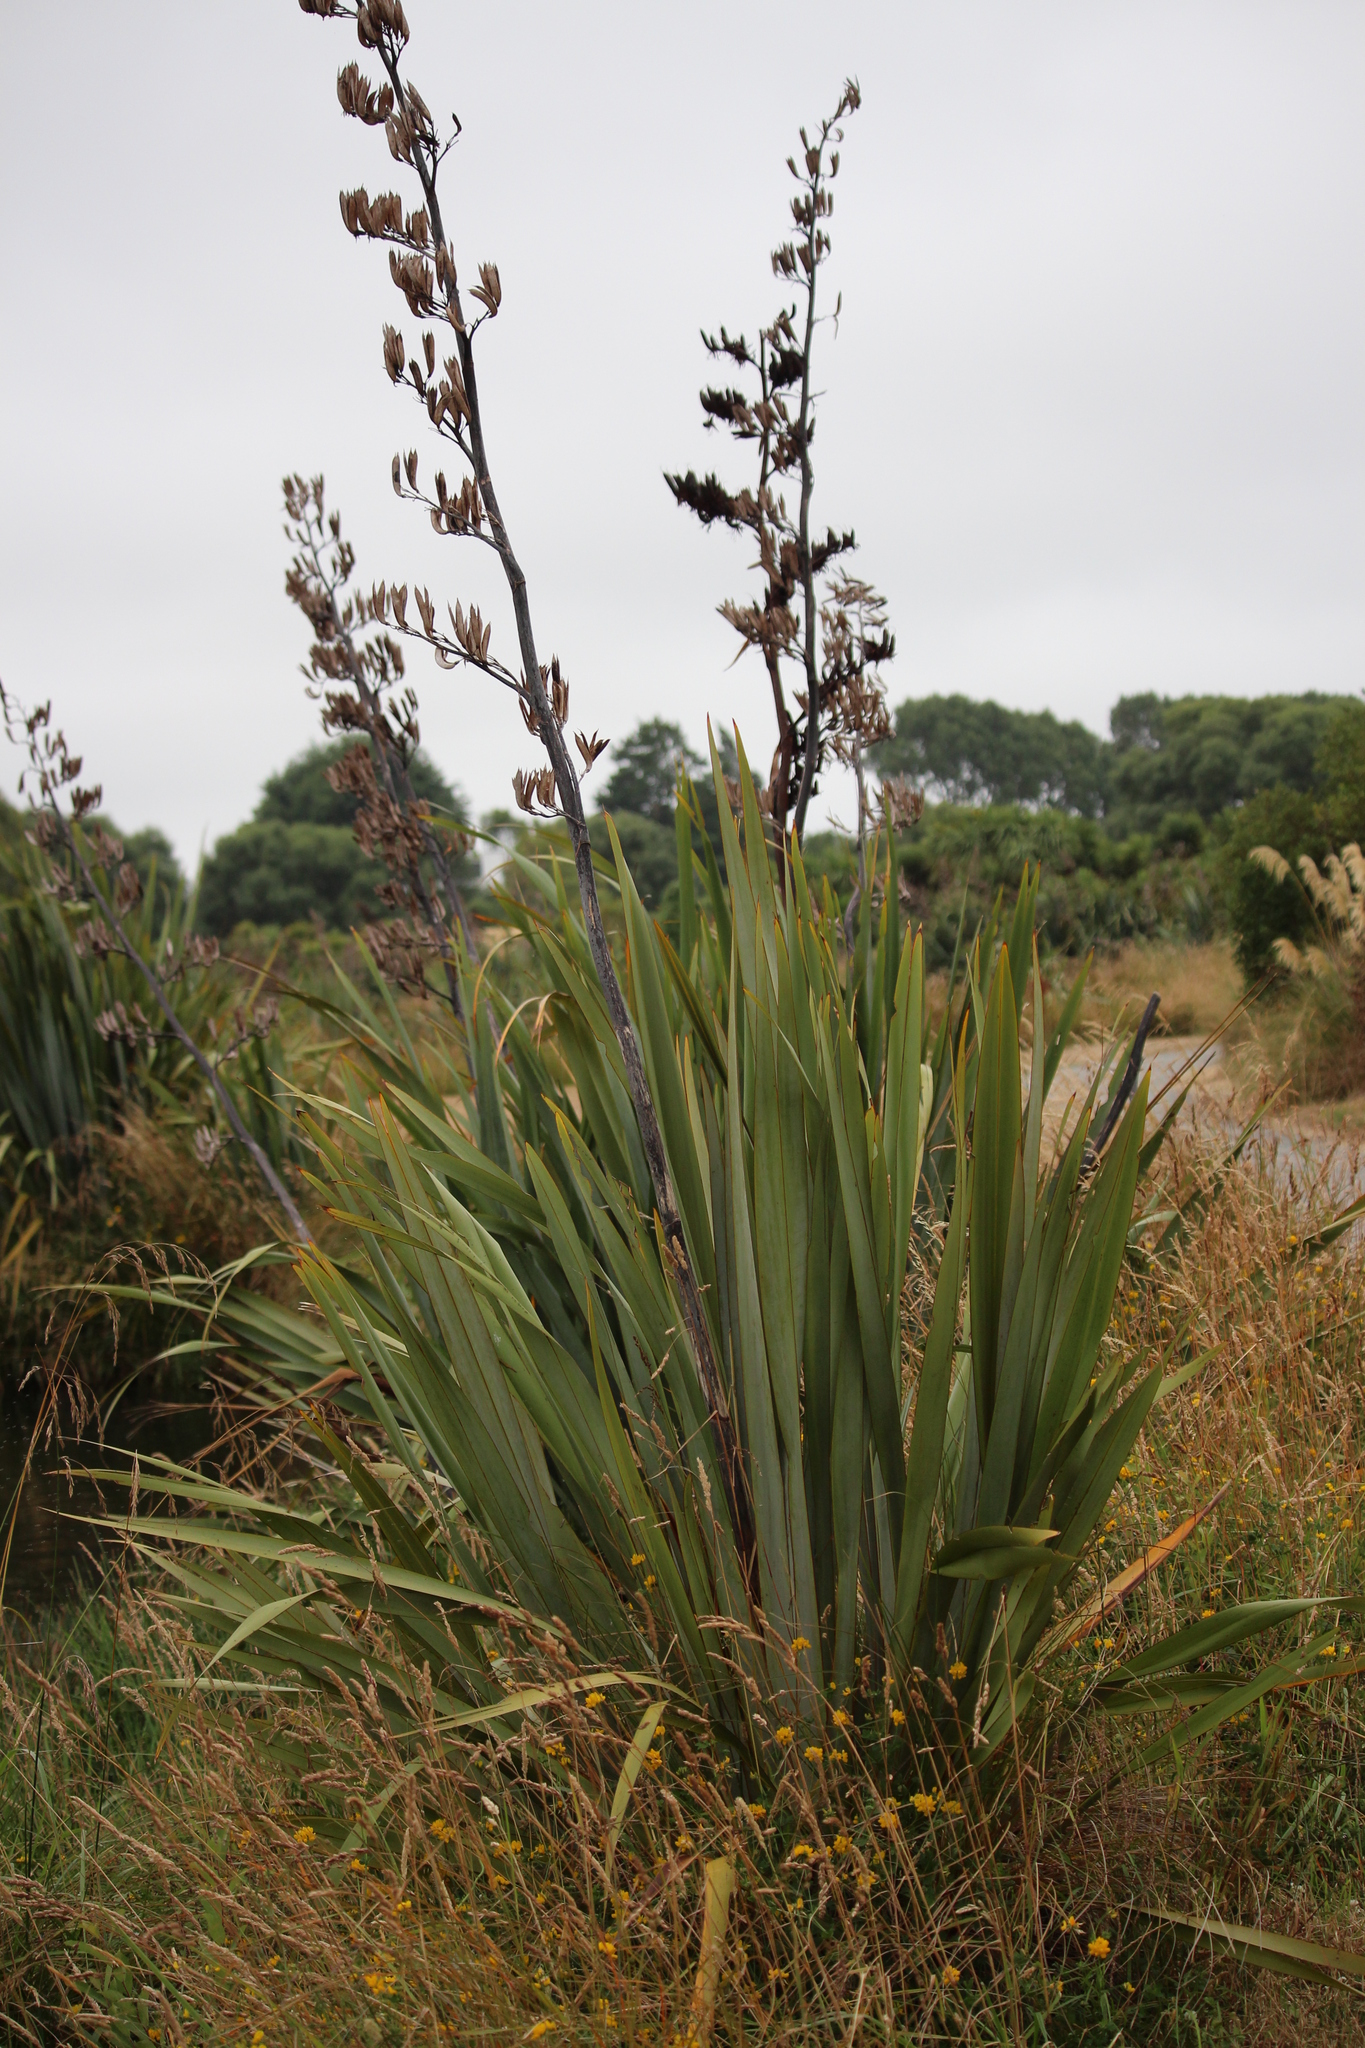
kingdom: Plantae
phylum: Tracheophyta
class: Liliopsida
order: Asparagales
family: Asphodelaceae
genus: Phormium
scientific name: Phormium tenax
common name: New zealand flax
